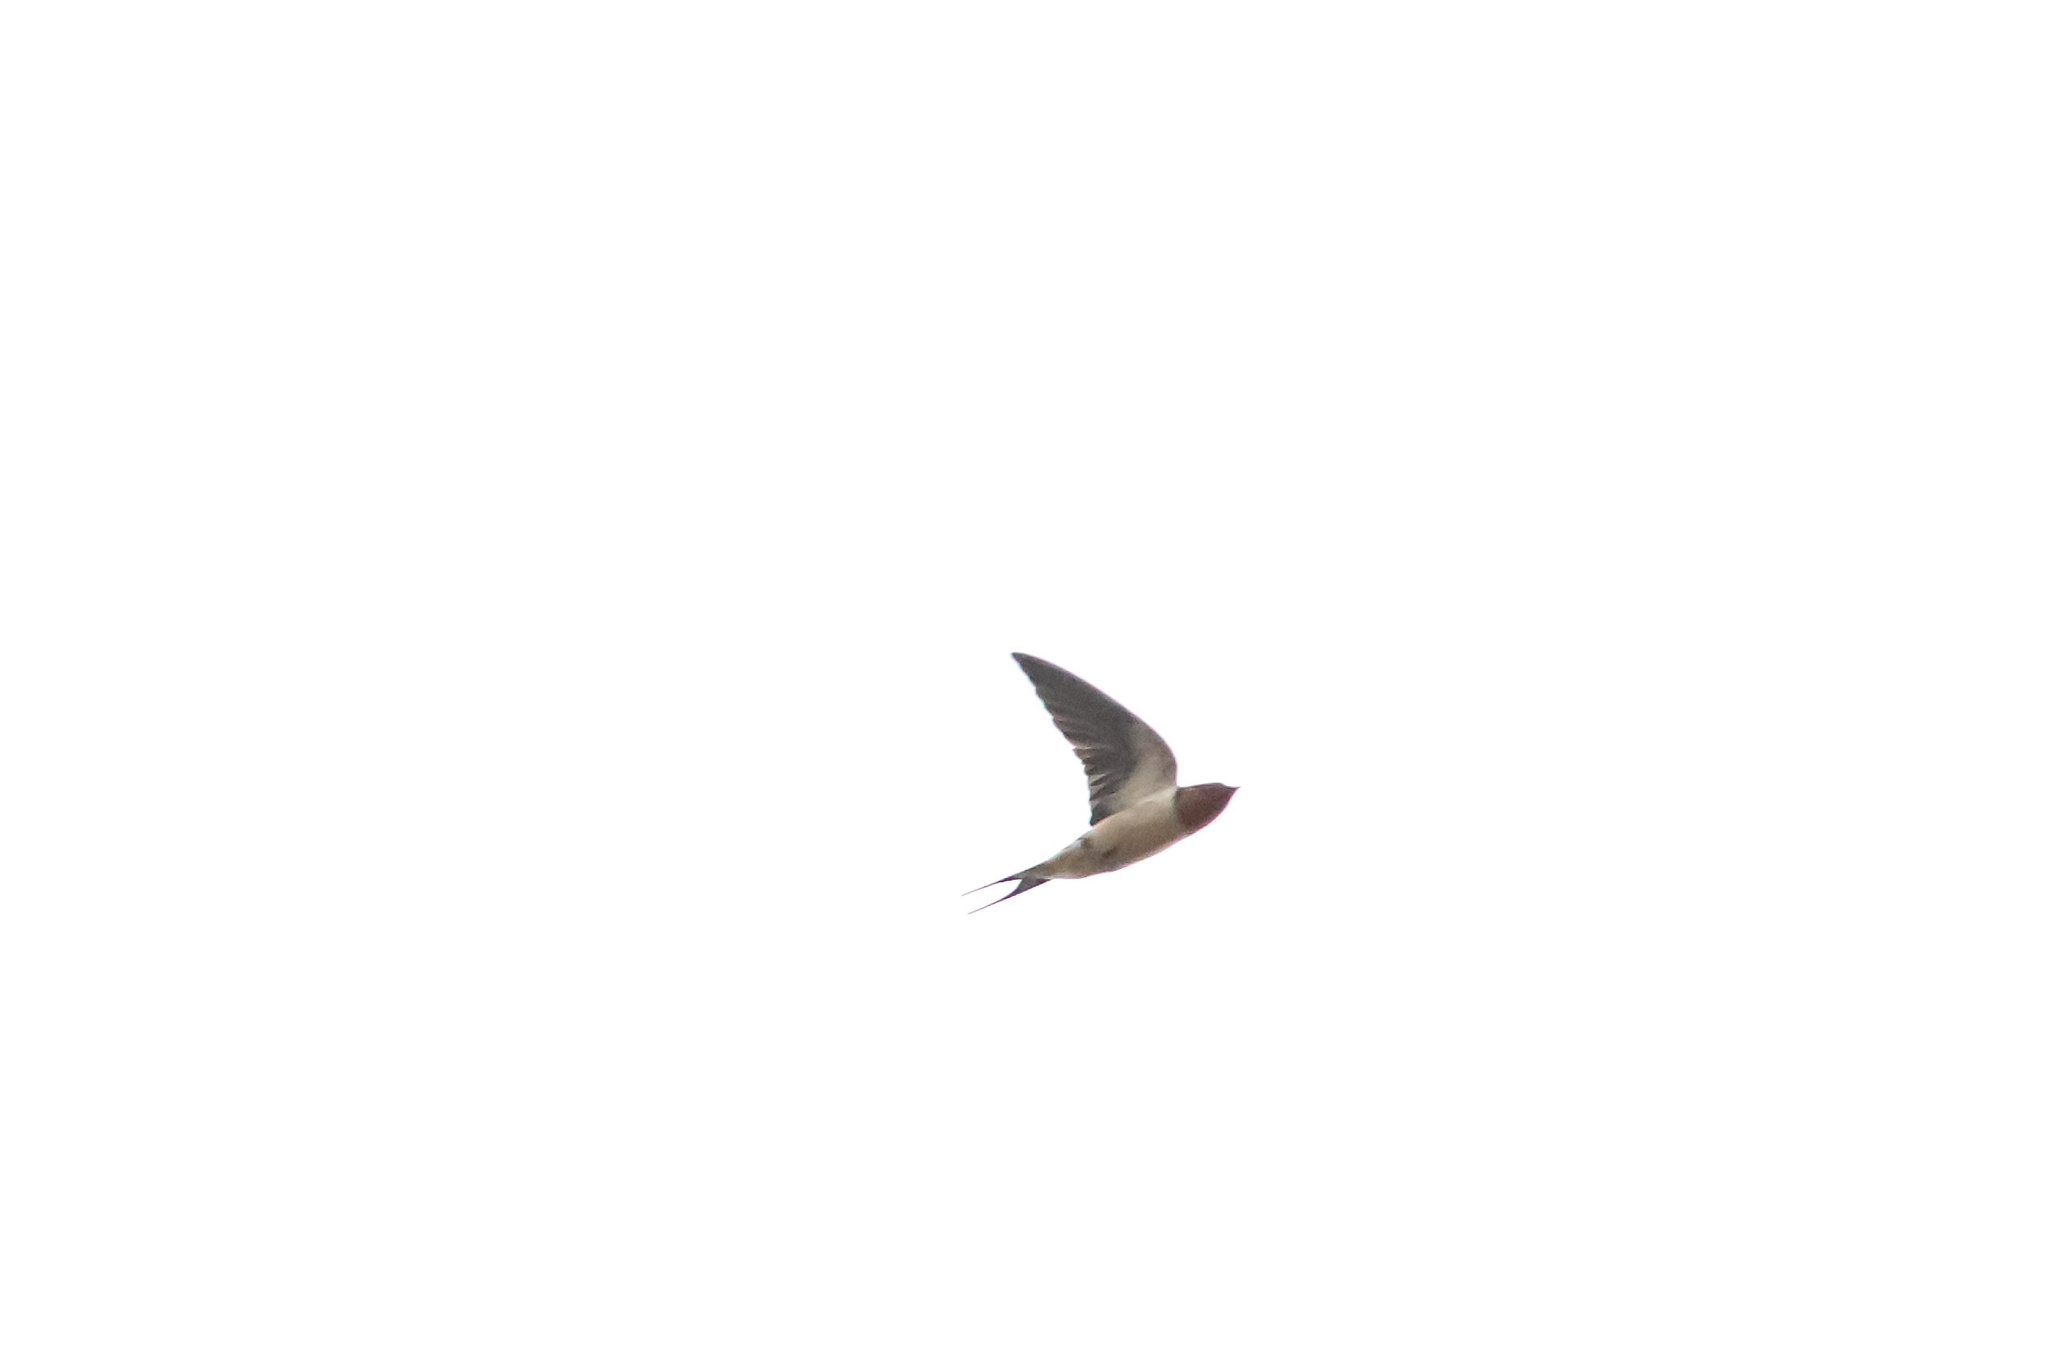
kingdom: Animalia
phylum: Chordata
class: Aves
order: Passeriformes
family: Hirundinidae
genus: Hirundo
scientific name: Hirundo rustica
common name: Barn swallow
